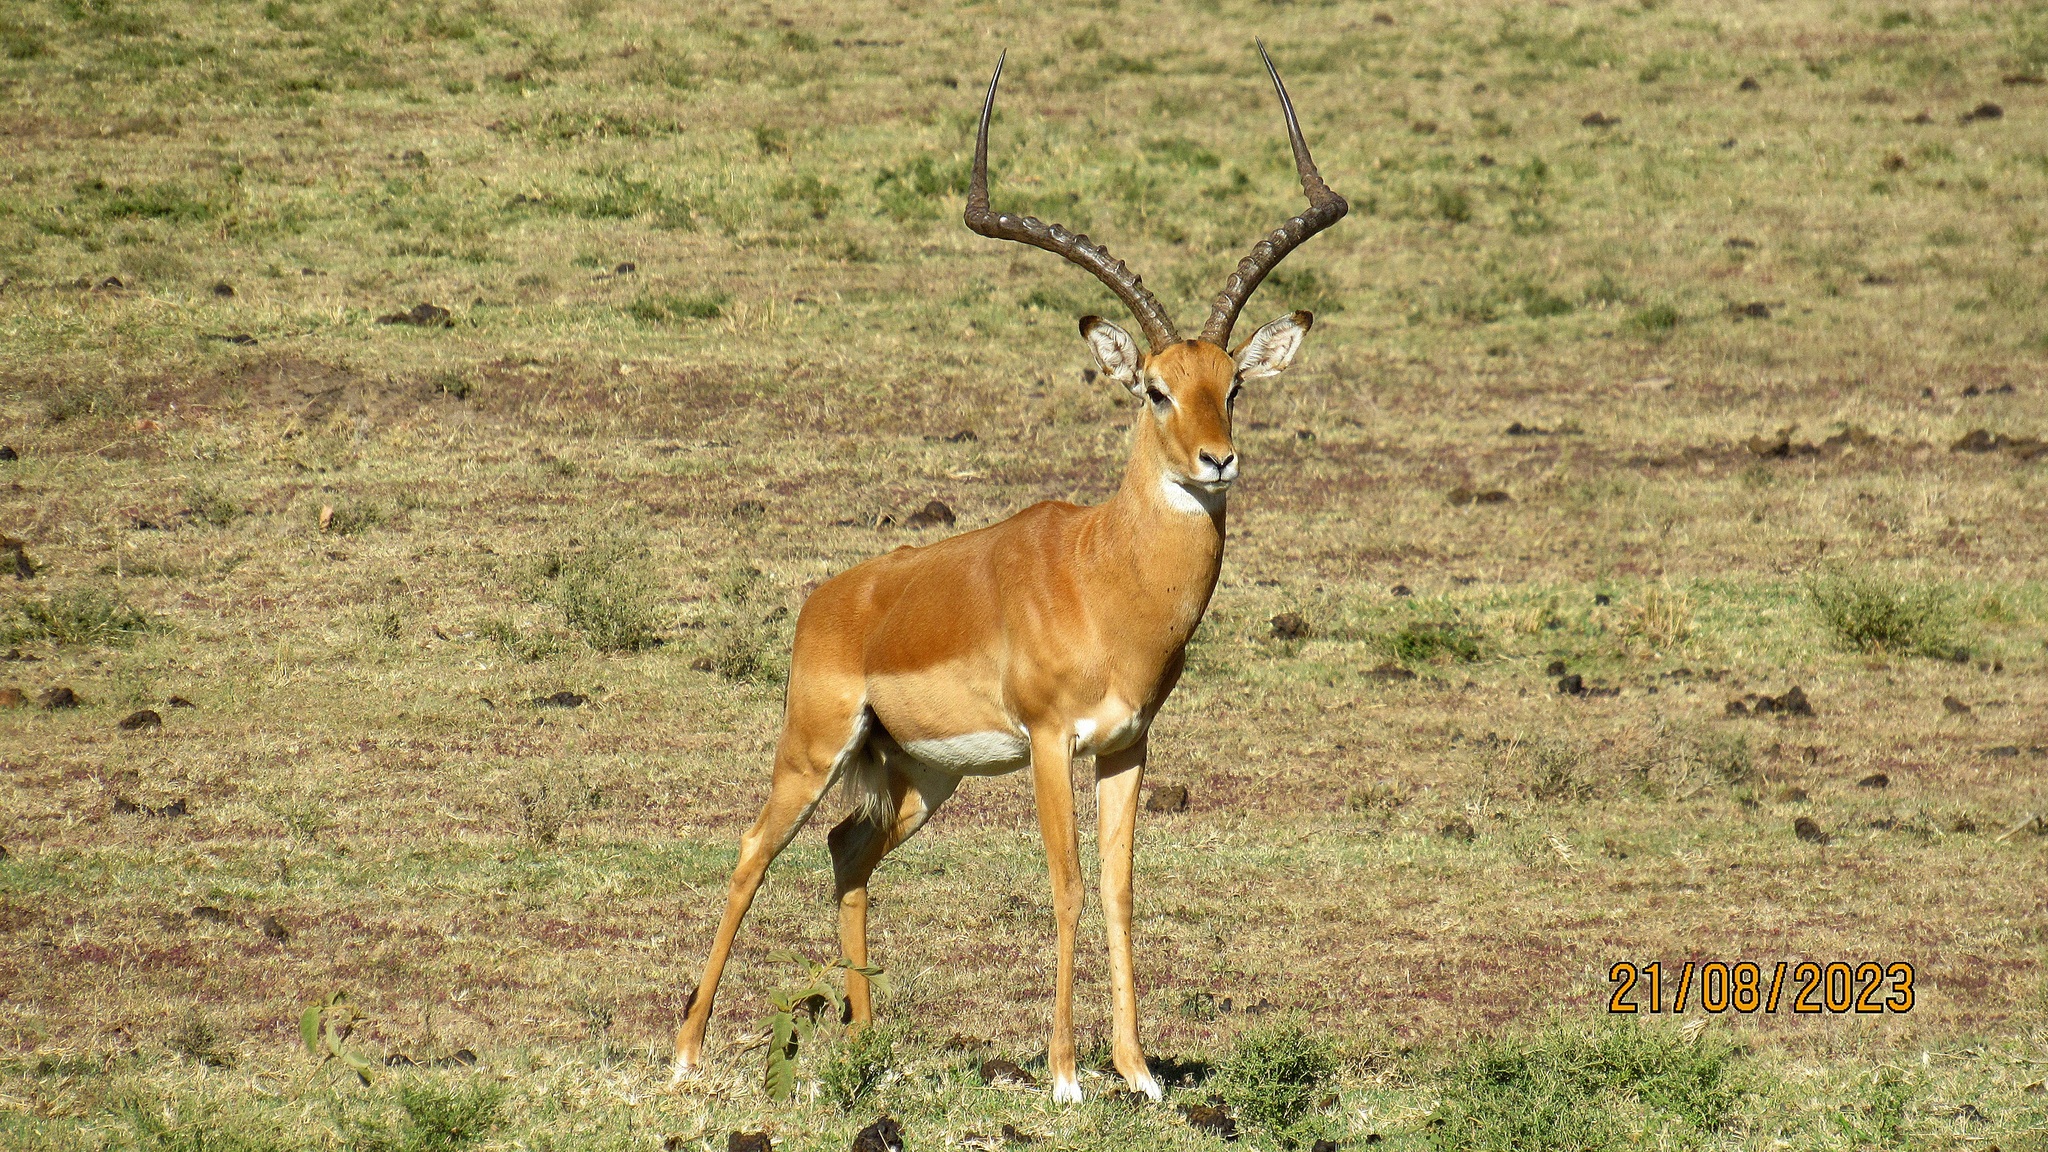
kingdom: Animalia
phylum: Chordata
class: Mammalia
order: Artiodactyla
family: Bovidae
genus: Aepyceros
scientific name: Aepyceros melampus
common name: Impala
